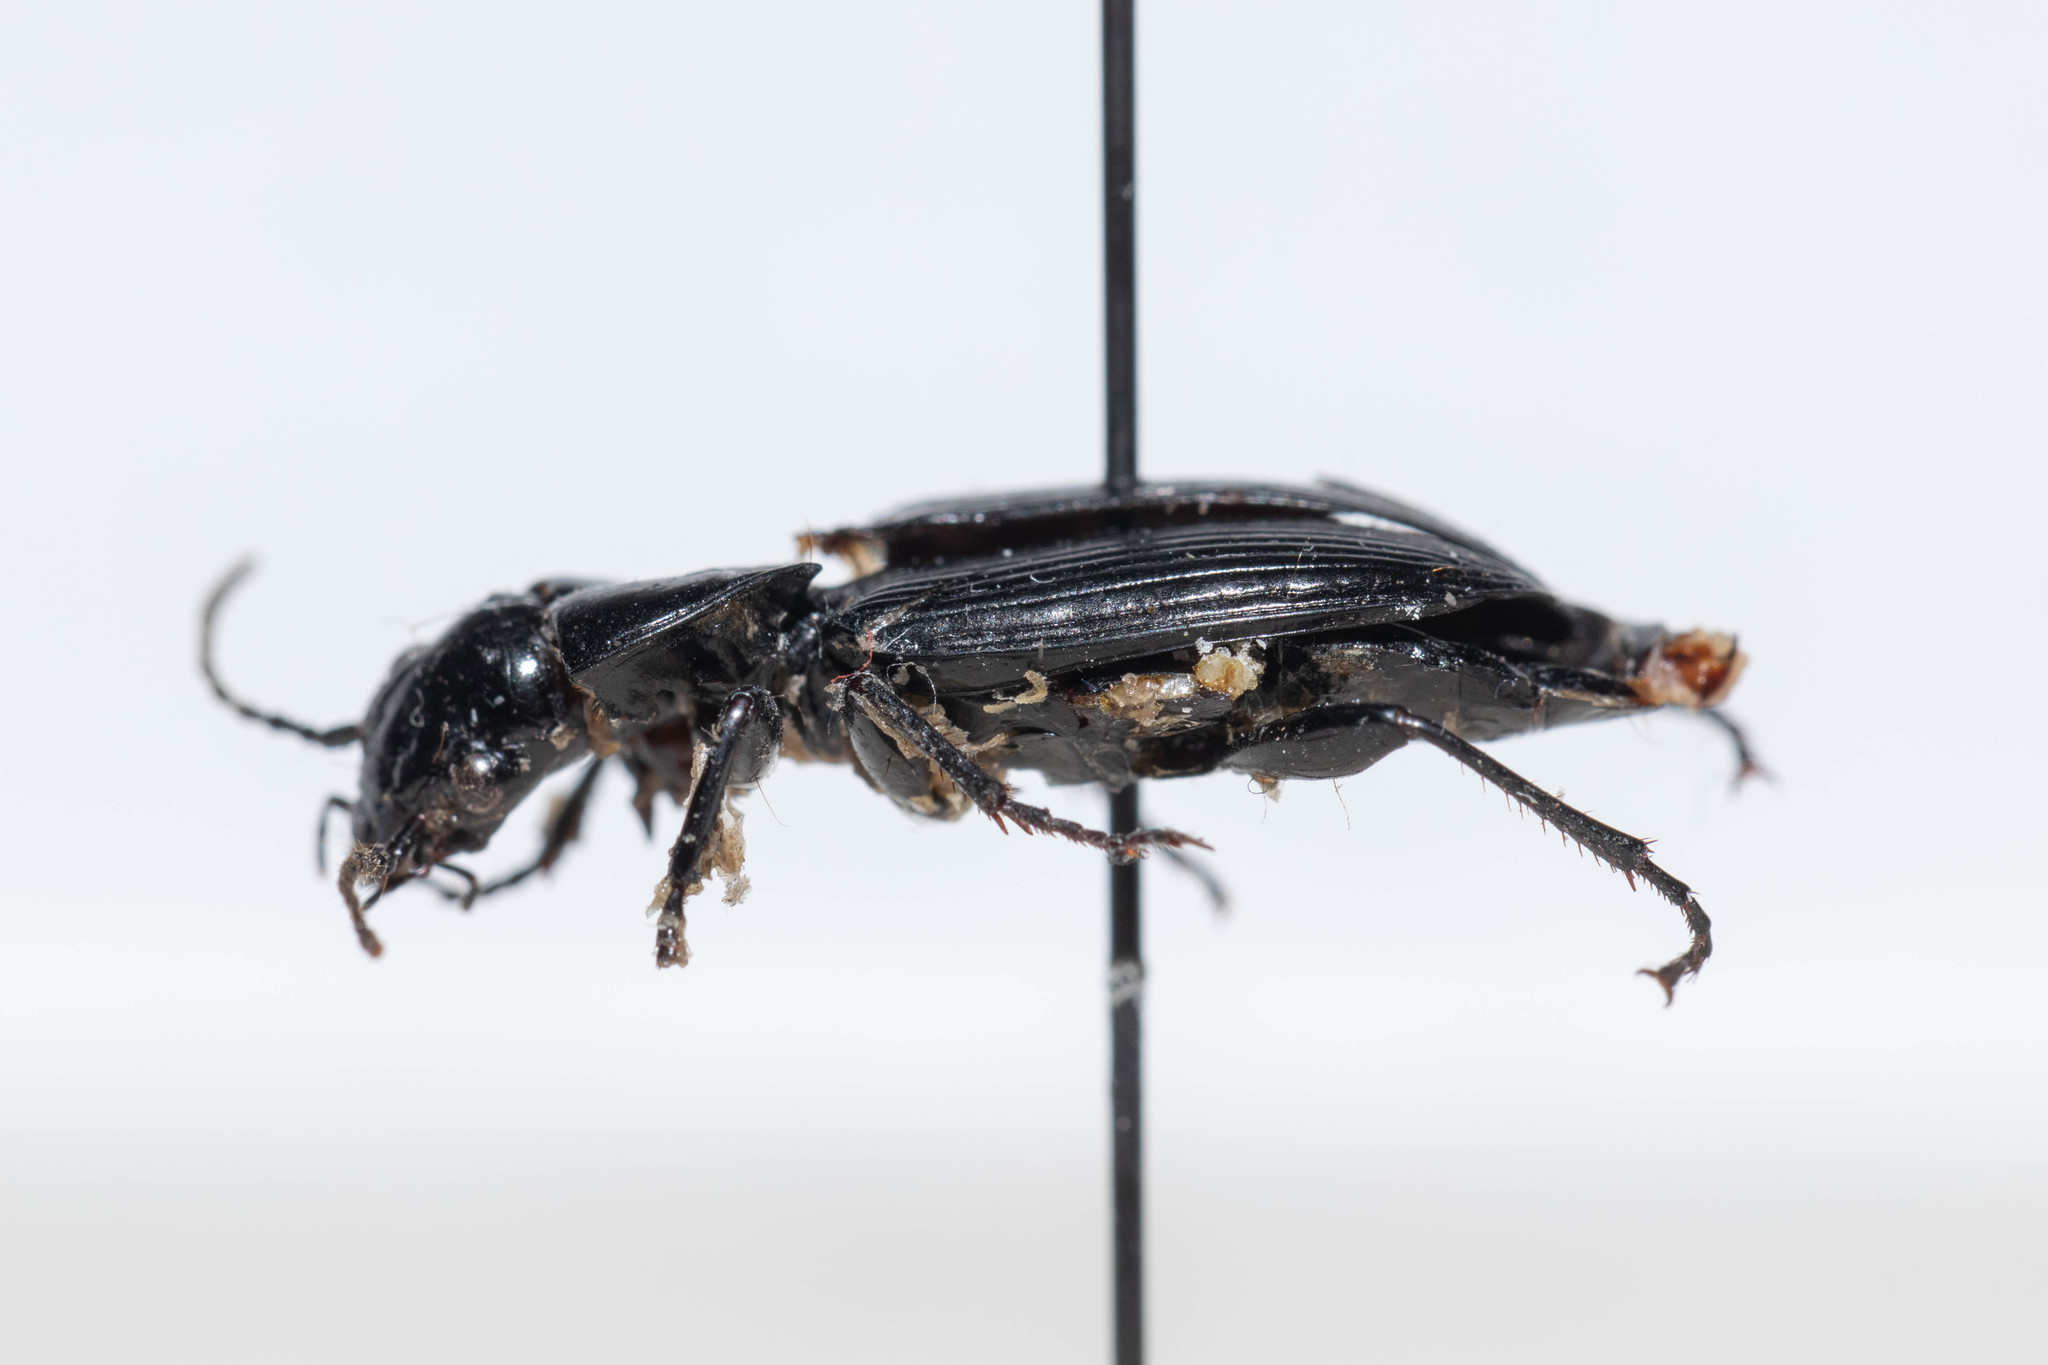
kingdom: Animalia
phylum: Arthropoda
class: Insecta
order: Coleoptera
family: Carabidae
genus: Pterostichus
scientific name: Pterostichus melanarius
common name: European dark harp ground beetle
